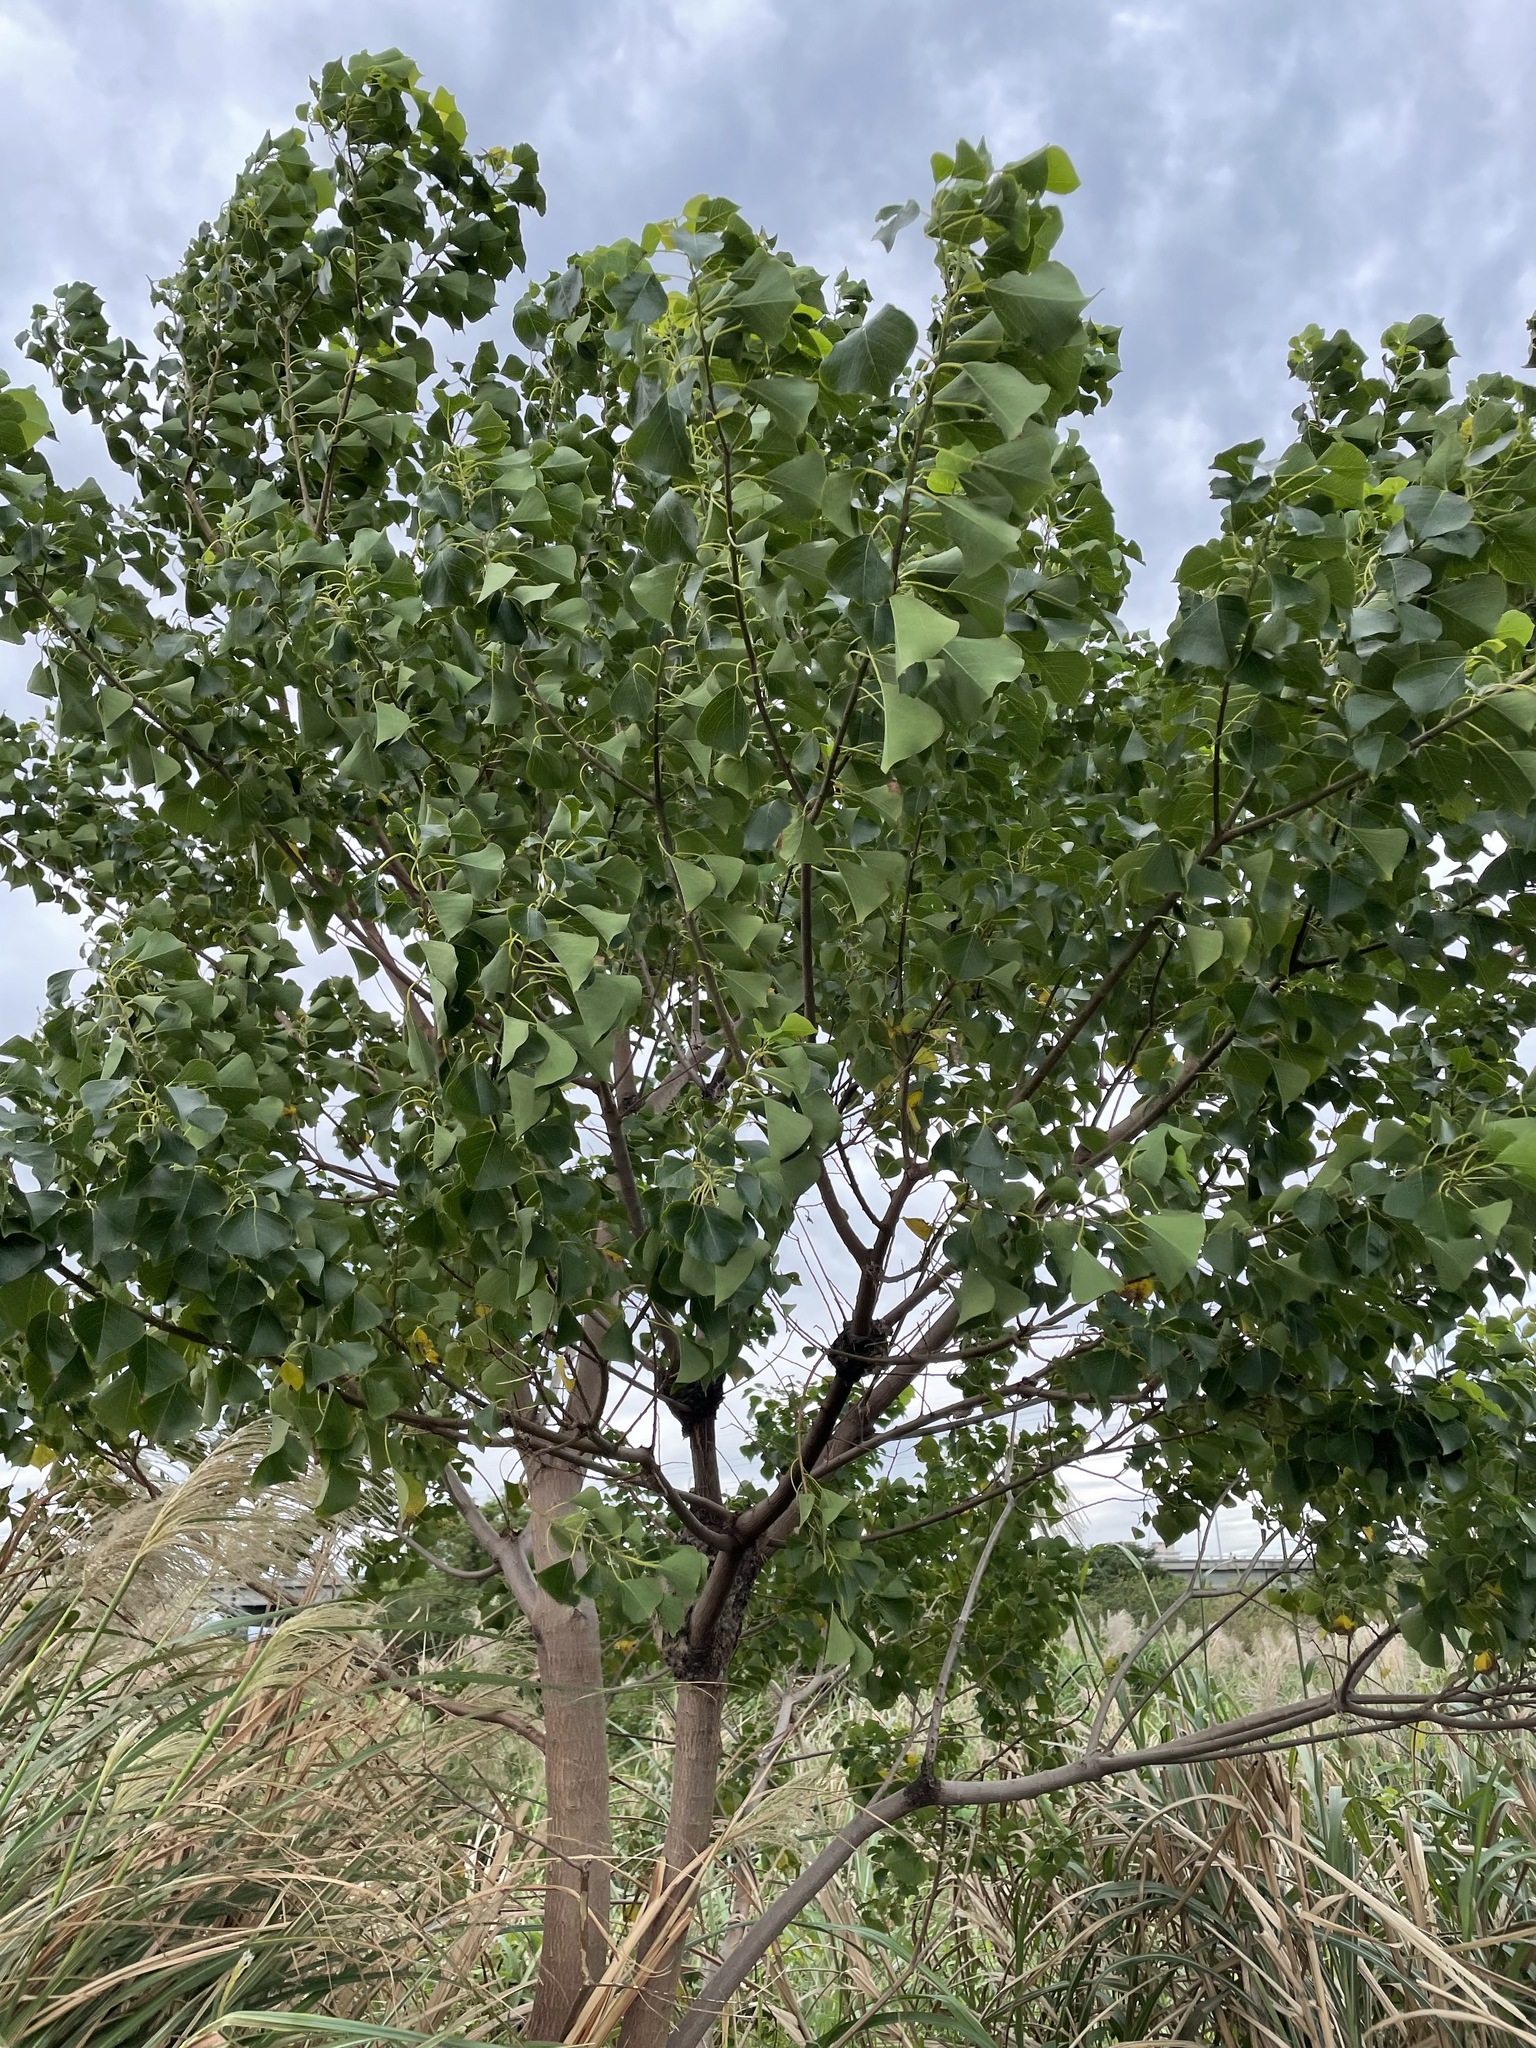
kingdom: Plantae
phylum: Tracheophyta
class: Magnoliopsida
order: Malpighiales
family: Euphorbiaceae
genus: Triadica
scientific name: Triadica sebifera
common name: Chinese tallow
